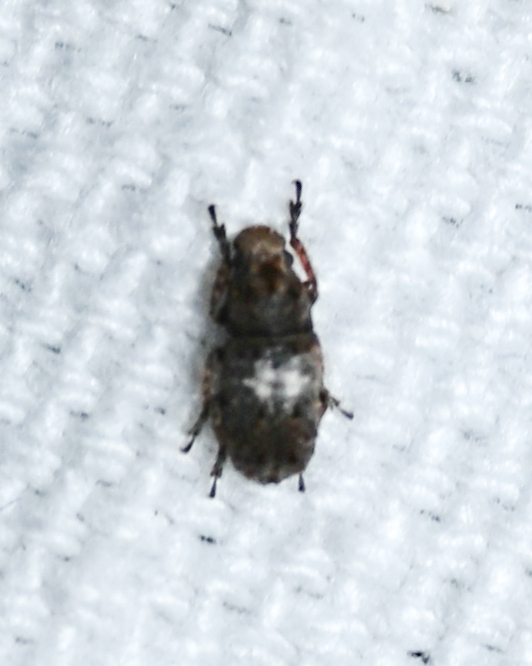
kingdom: Animalia
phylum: Arthropoda
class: Insecta
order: Coleoptera
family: Anthribidae
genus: Toxonotus
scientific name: Toxonotus cornutus
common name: Fungus weevil
